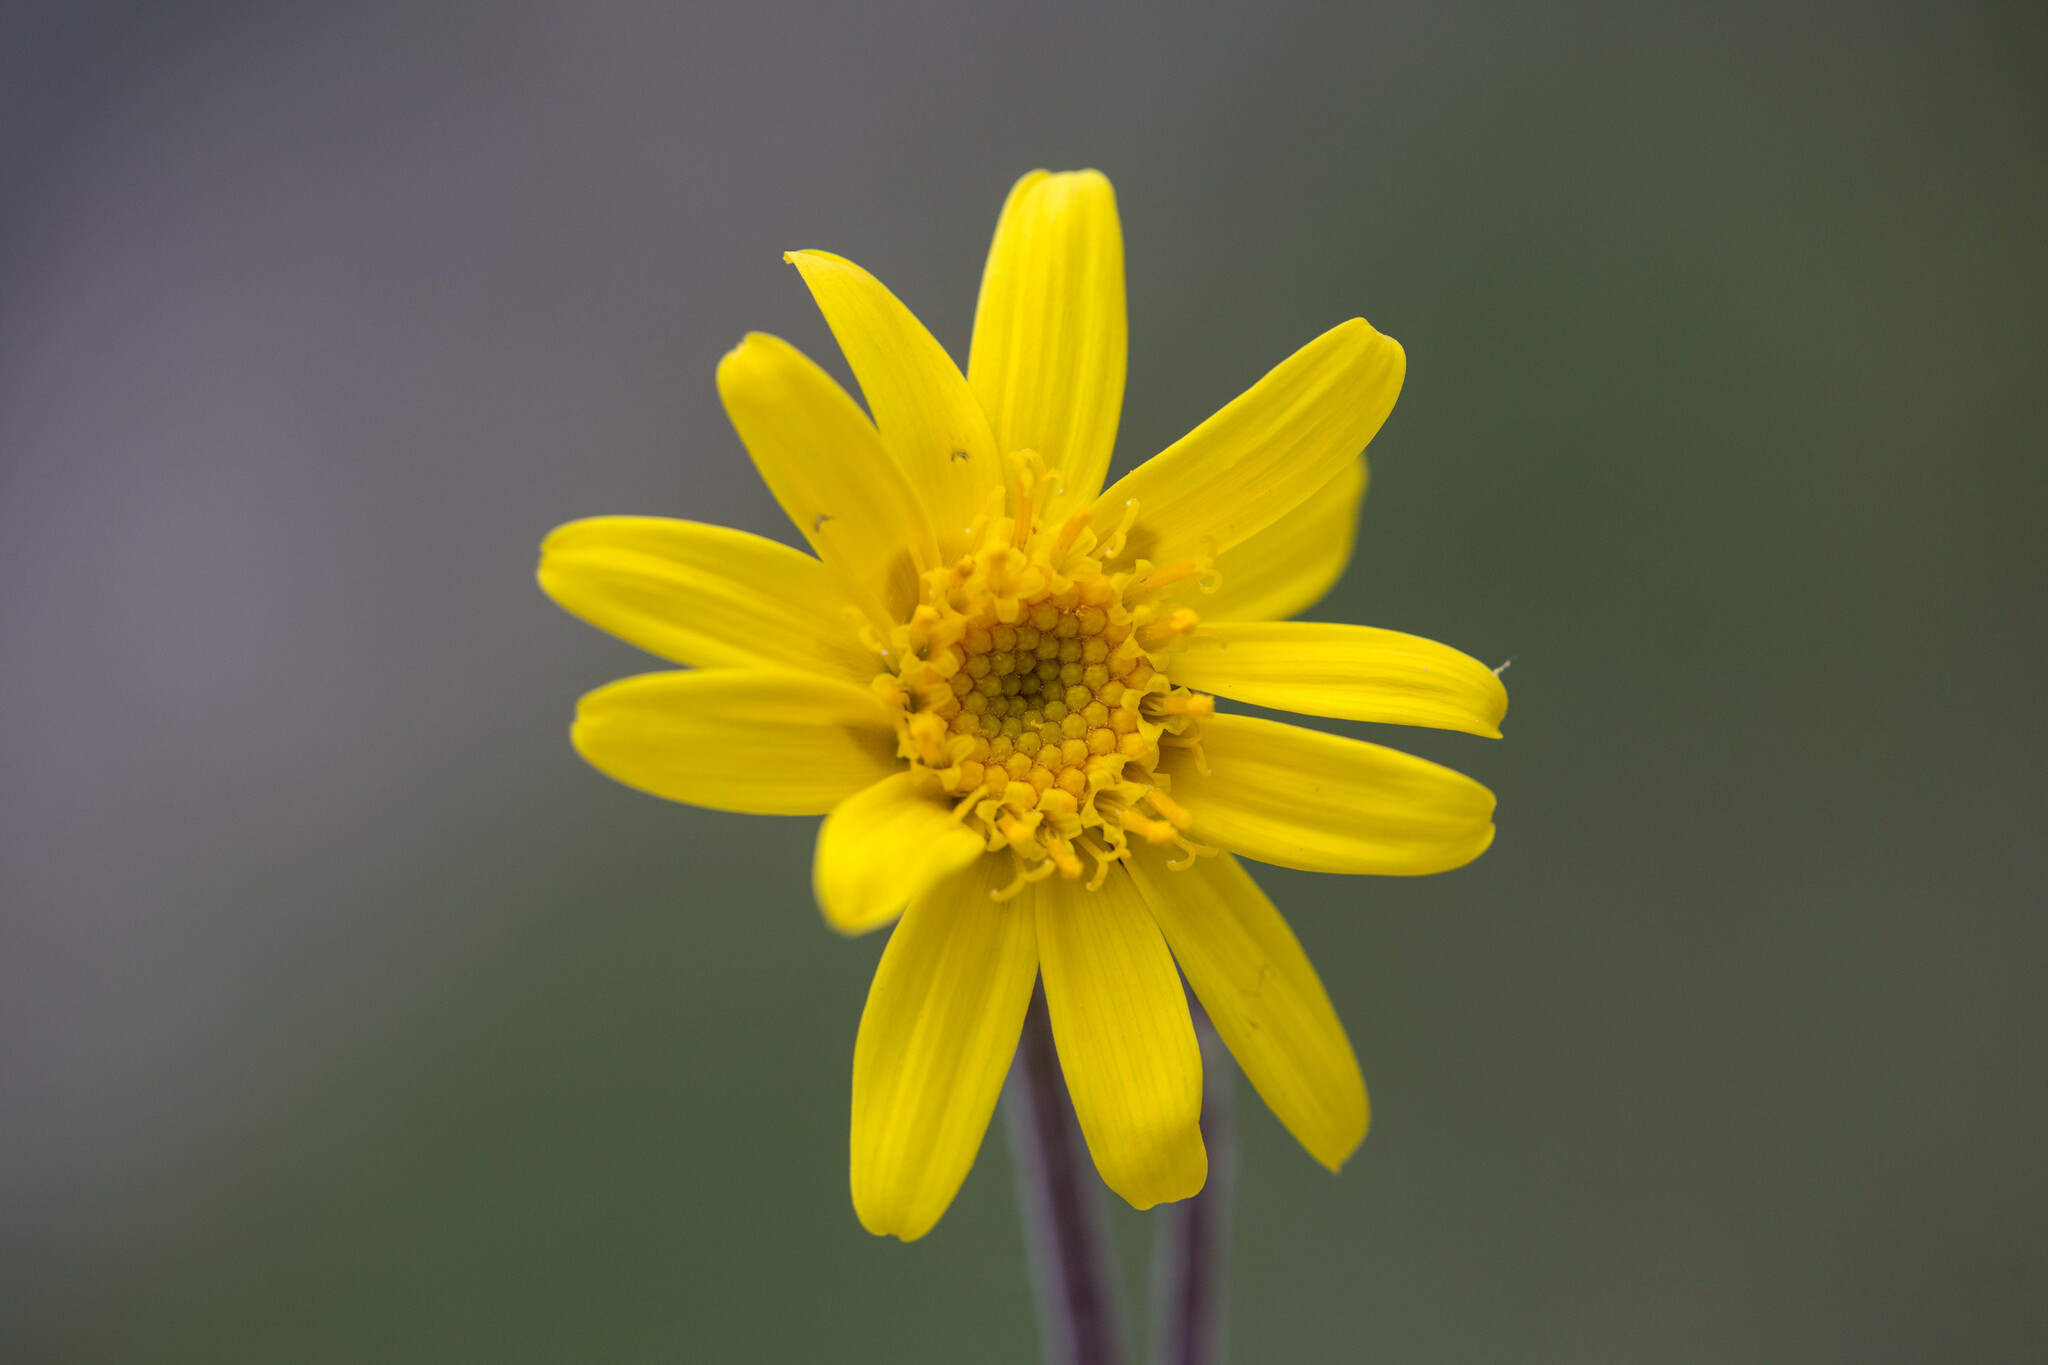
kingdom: Plantae
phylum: Tracheophyta
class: Magnoliopsida
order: Asterales
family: Asteraceae
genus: Vickifunkia
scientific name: Vickifunkia robusta
